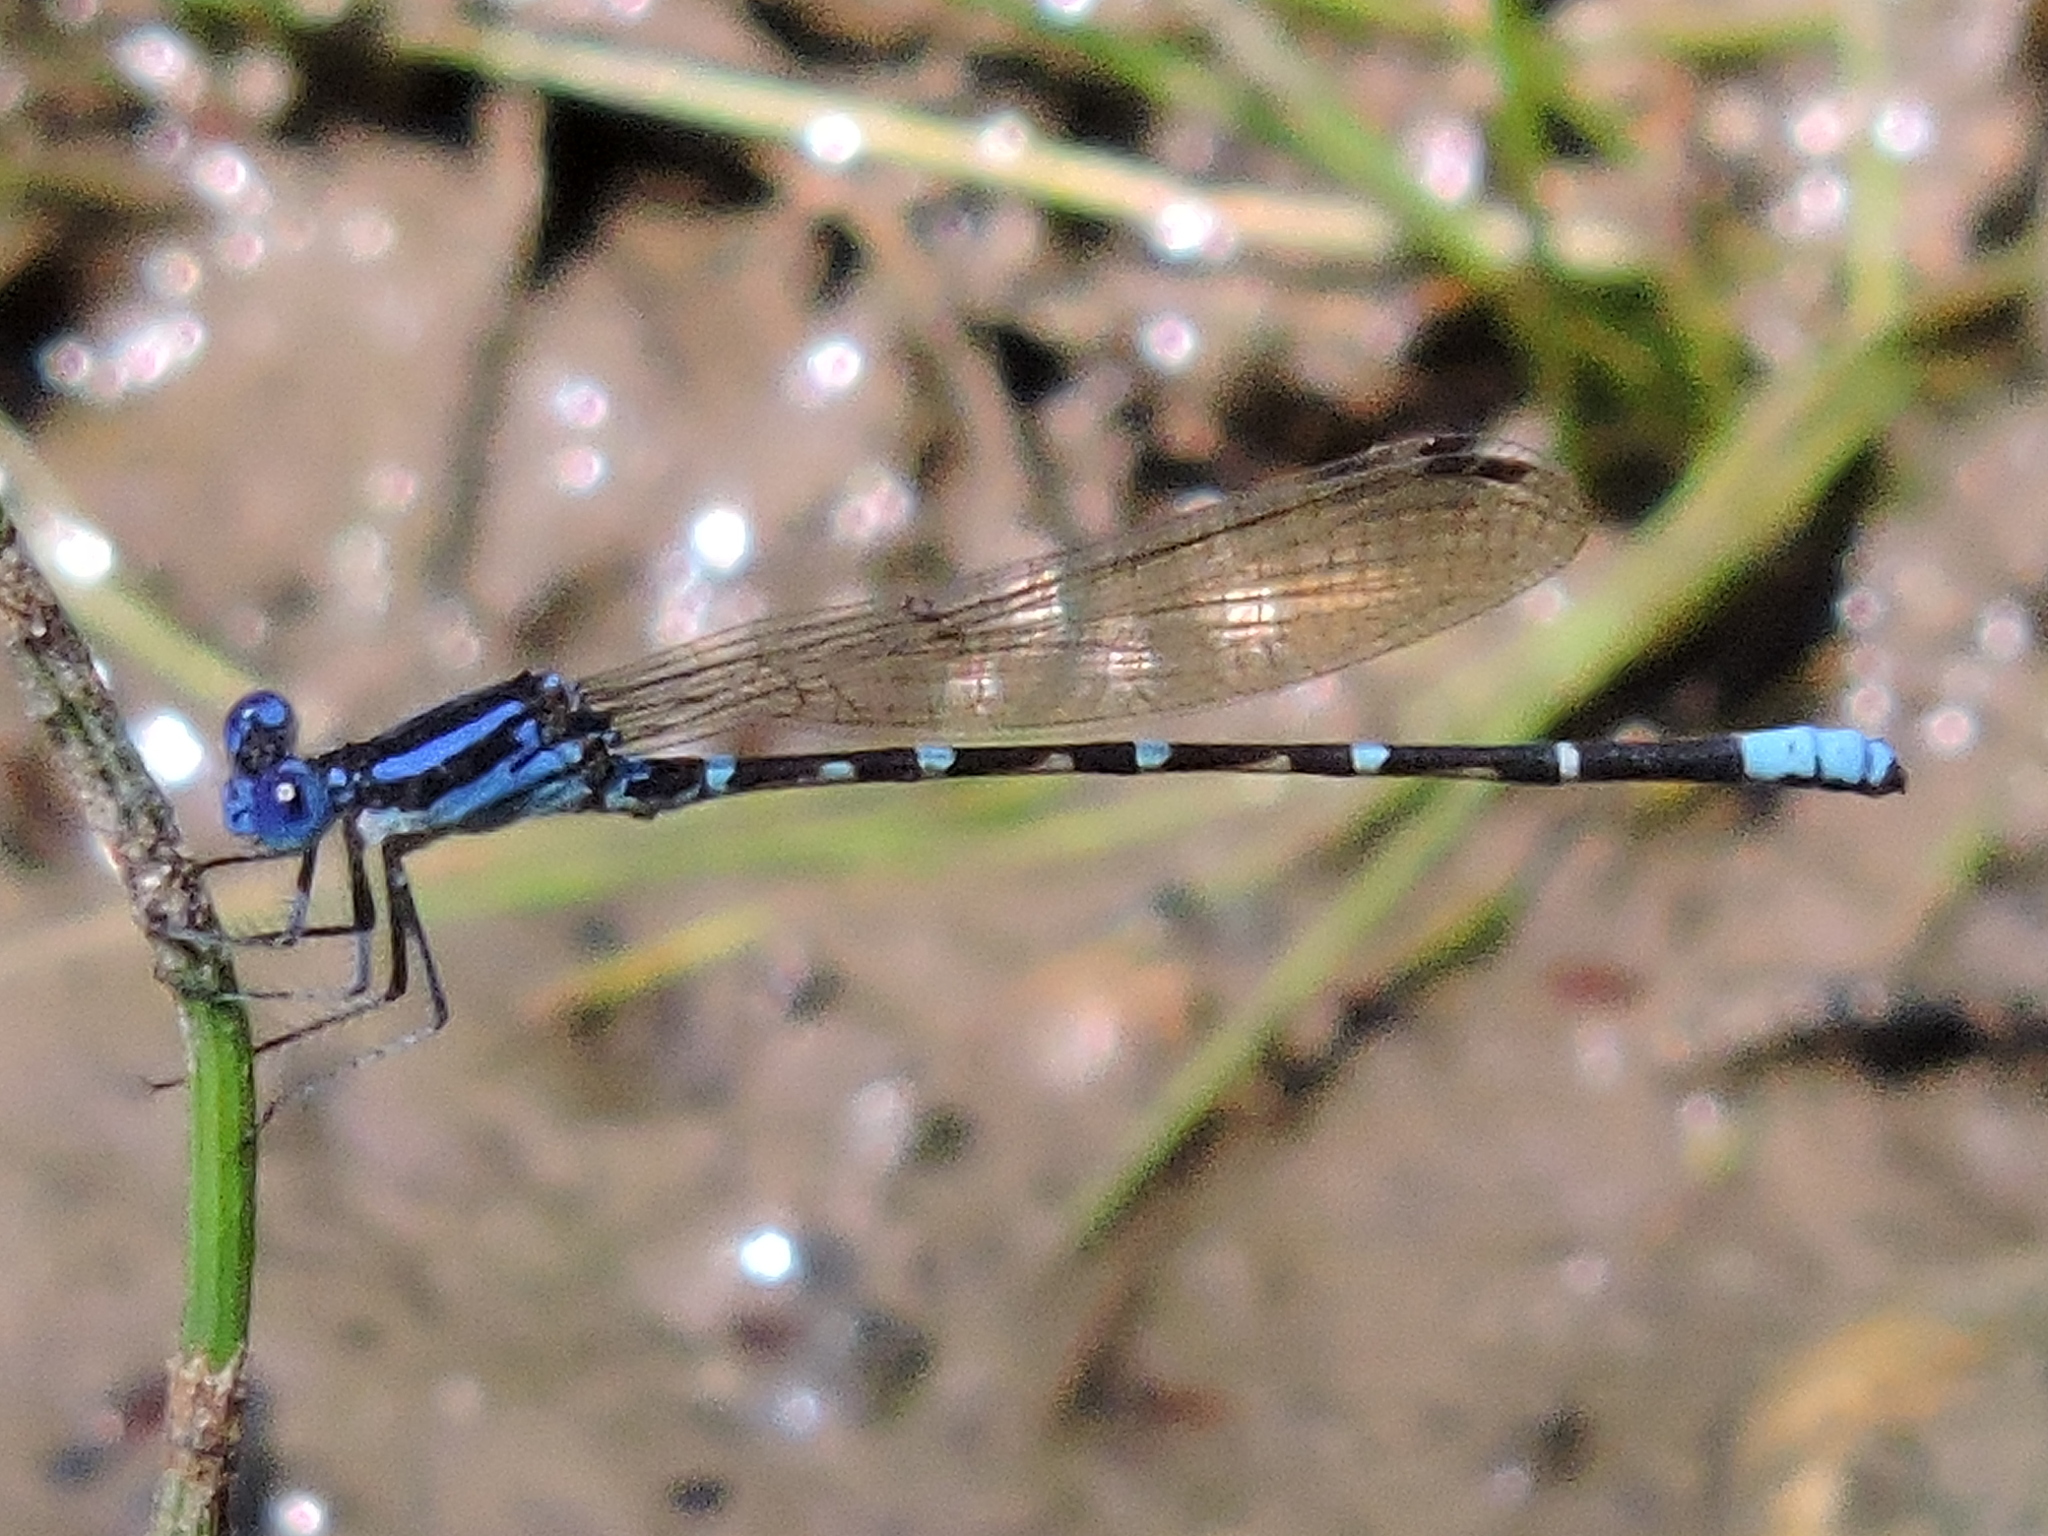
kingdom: Animalia
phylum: Arthropoda
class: Insecta
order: Odonata
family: Coenagrionidae
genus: Argia
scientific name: Argia sedula
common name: Blue-ringed dancer
